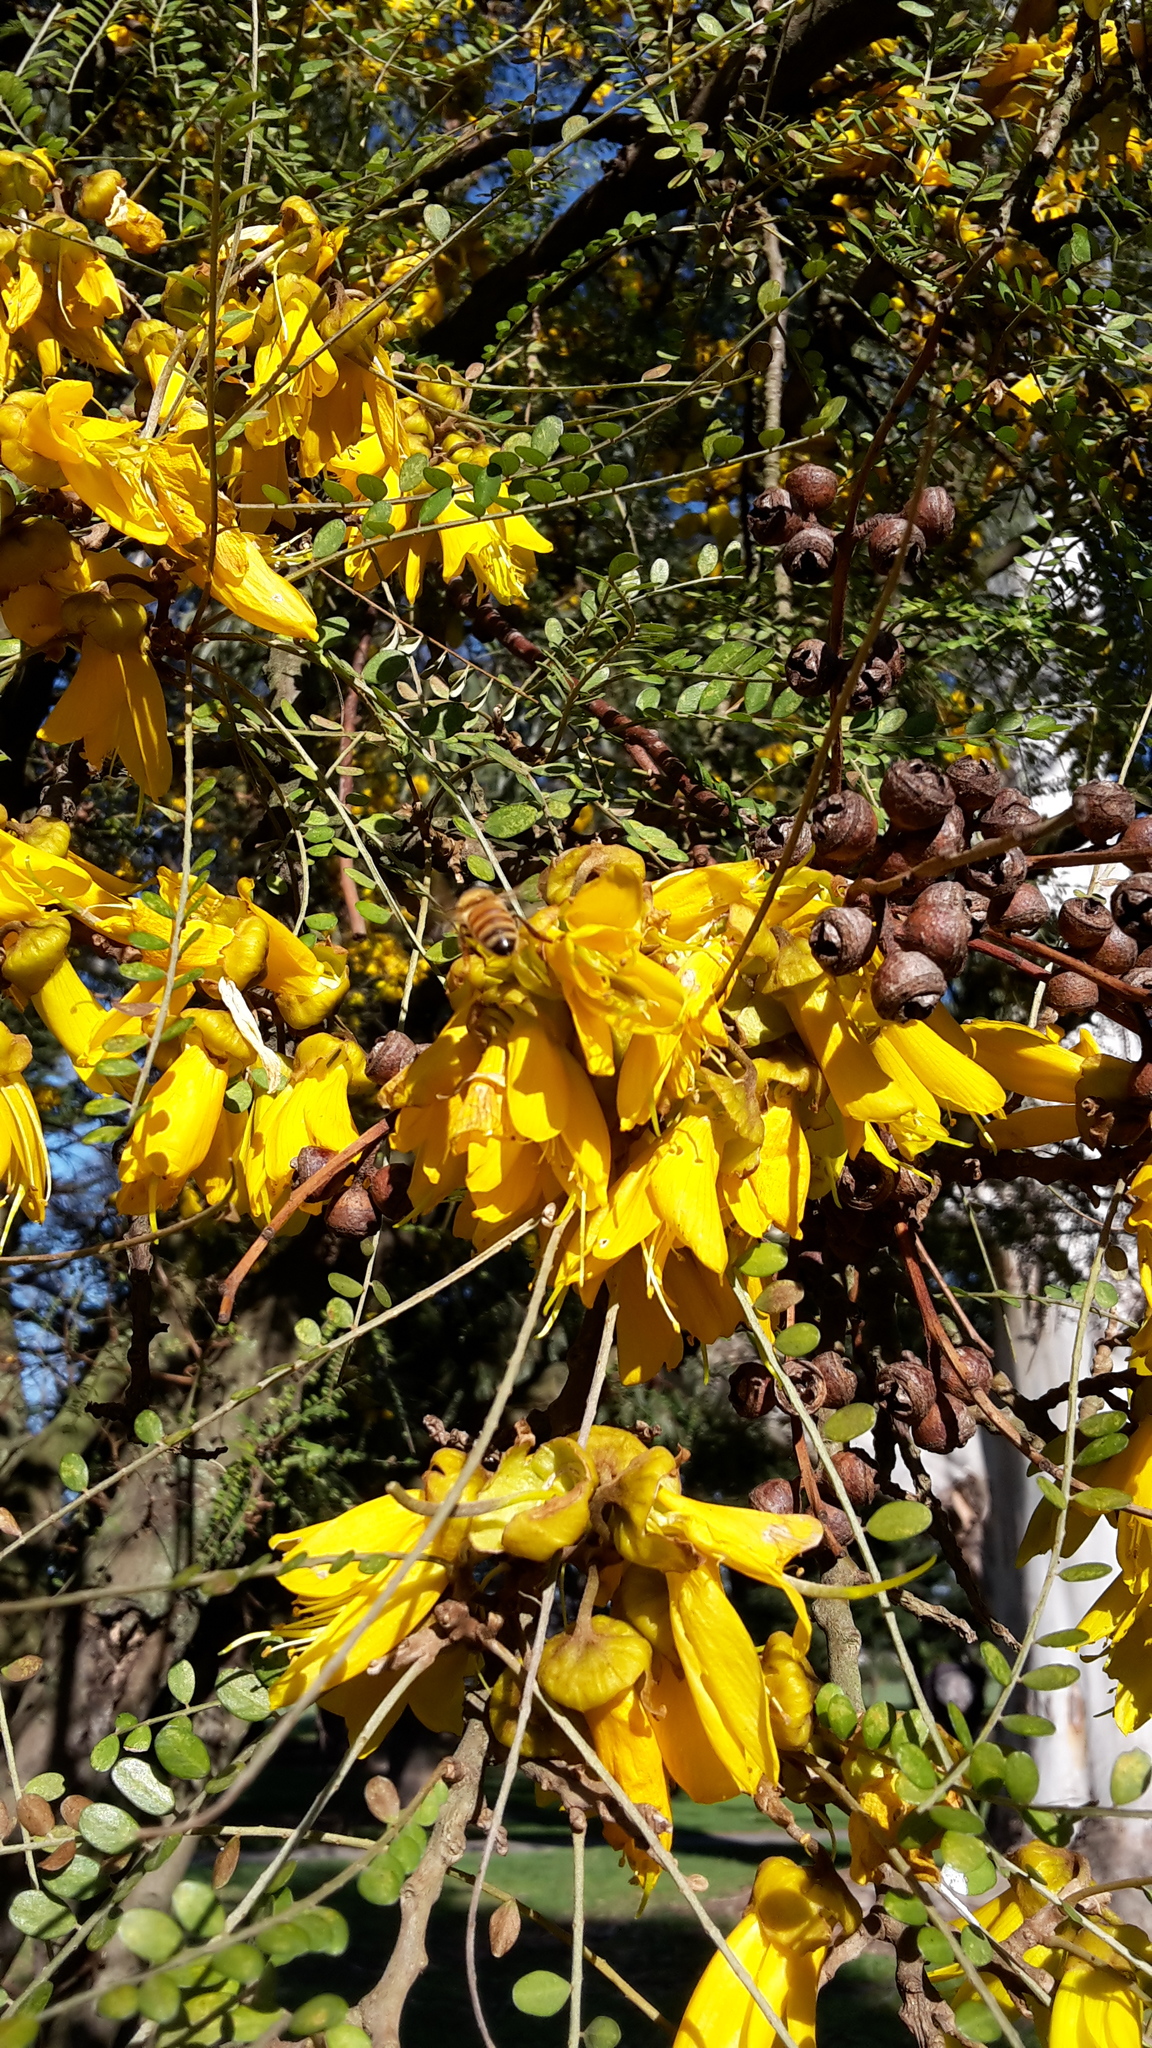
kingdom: Animalia
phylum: Arthropoda
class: Insecta
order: Hymenoptera
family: Apidae
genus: Apis
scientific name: Apis mellifera
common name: Honey bee
